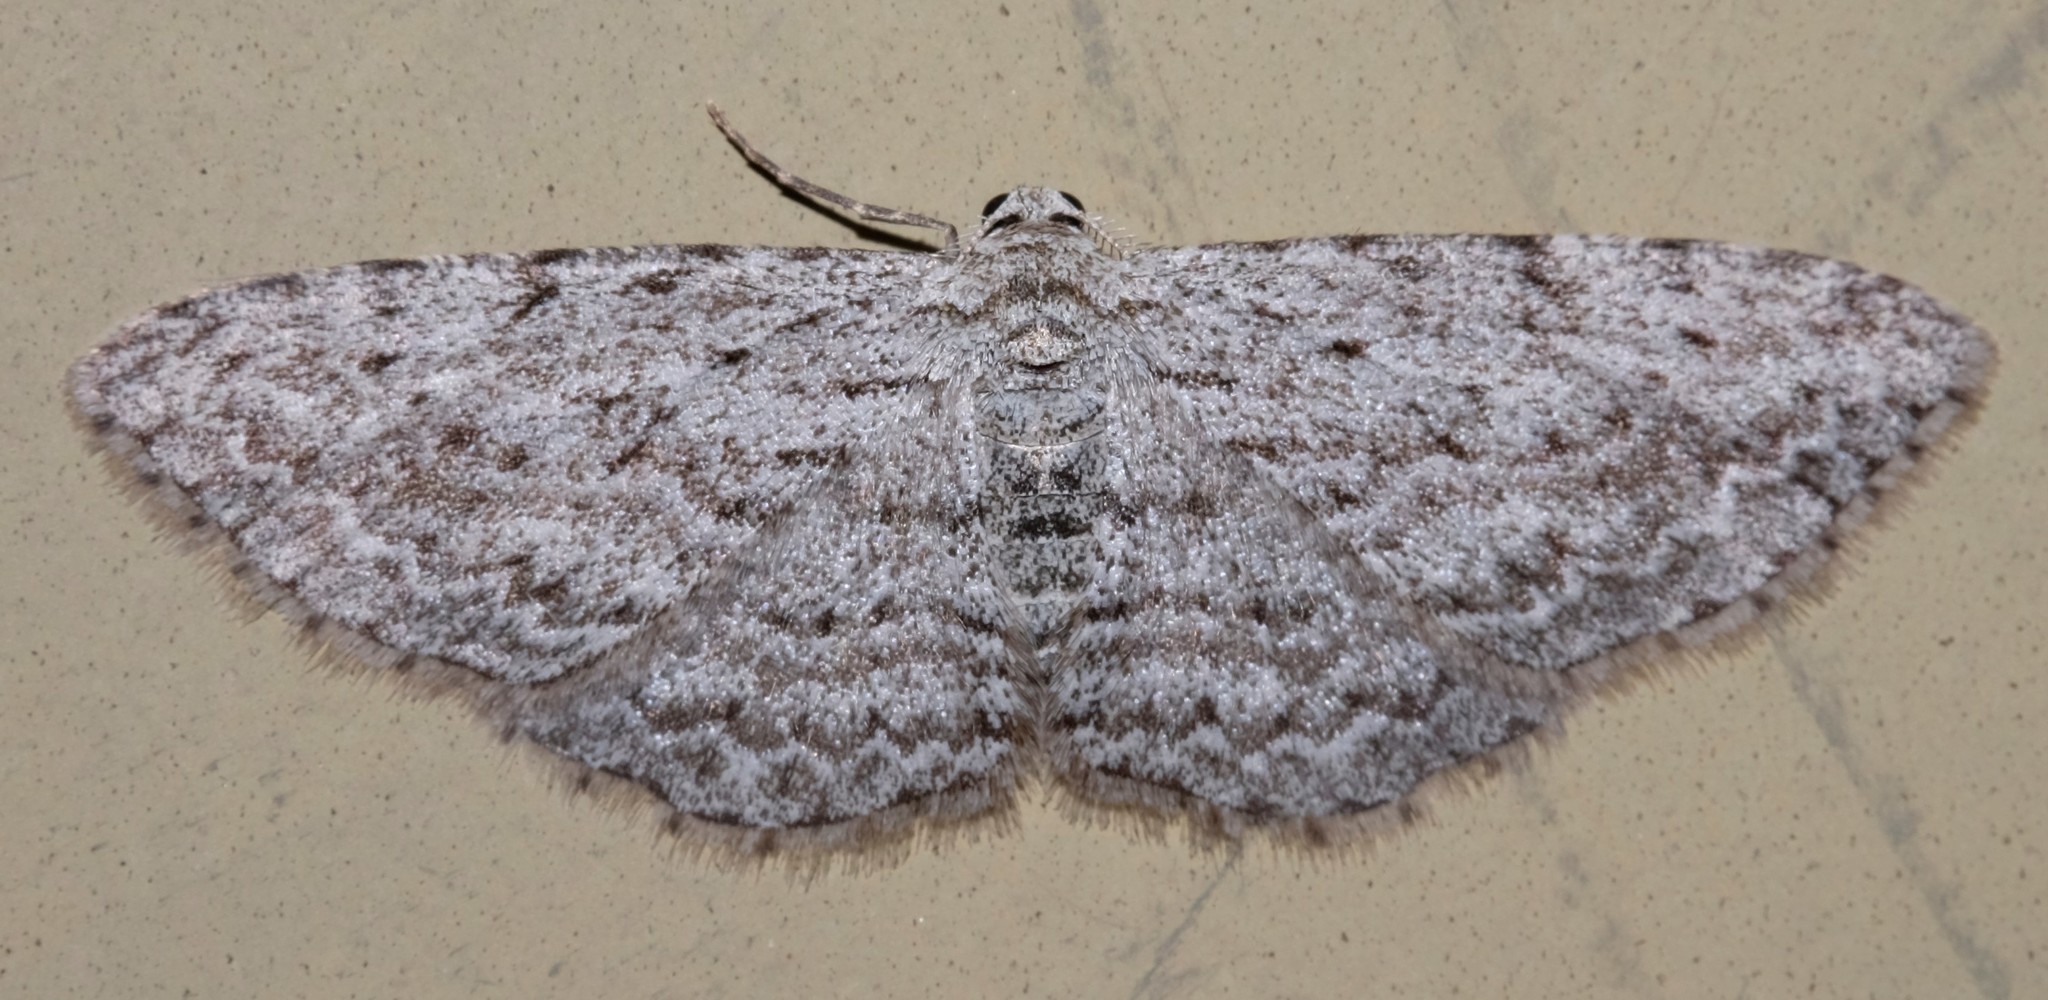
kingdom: Animalia
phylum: Arthropoda
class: Insecta
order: Lepidoptera
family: Geometridae
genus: Phelotis
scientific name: Phelotis cognata
